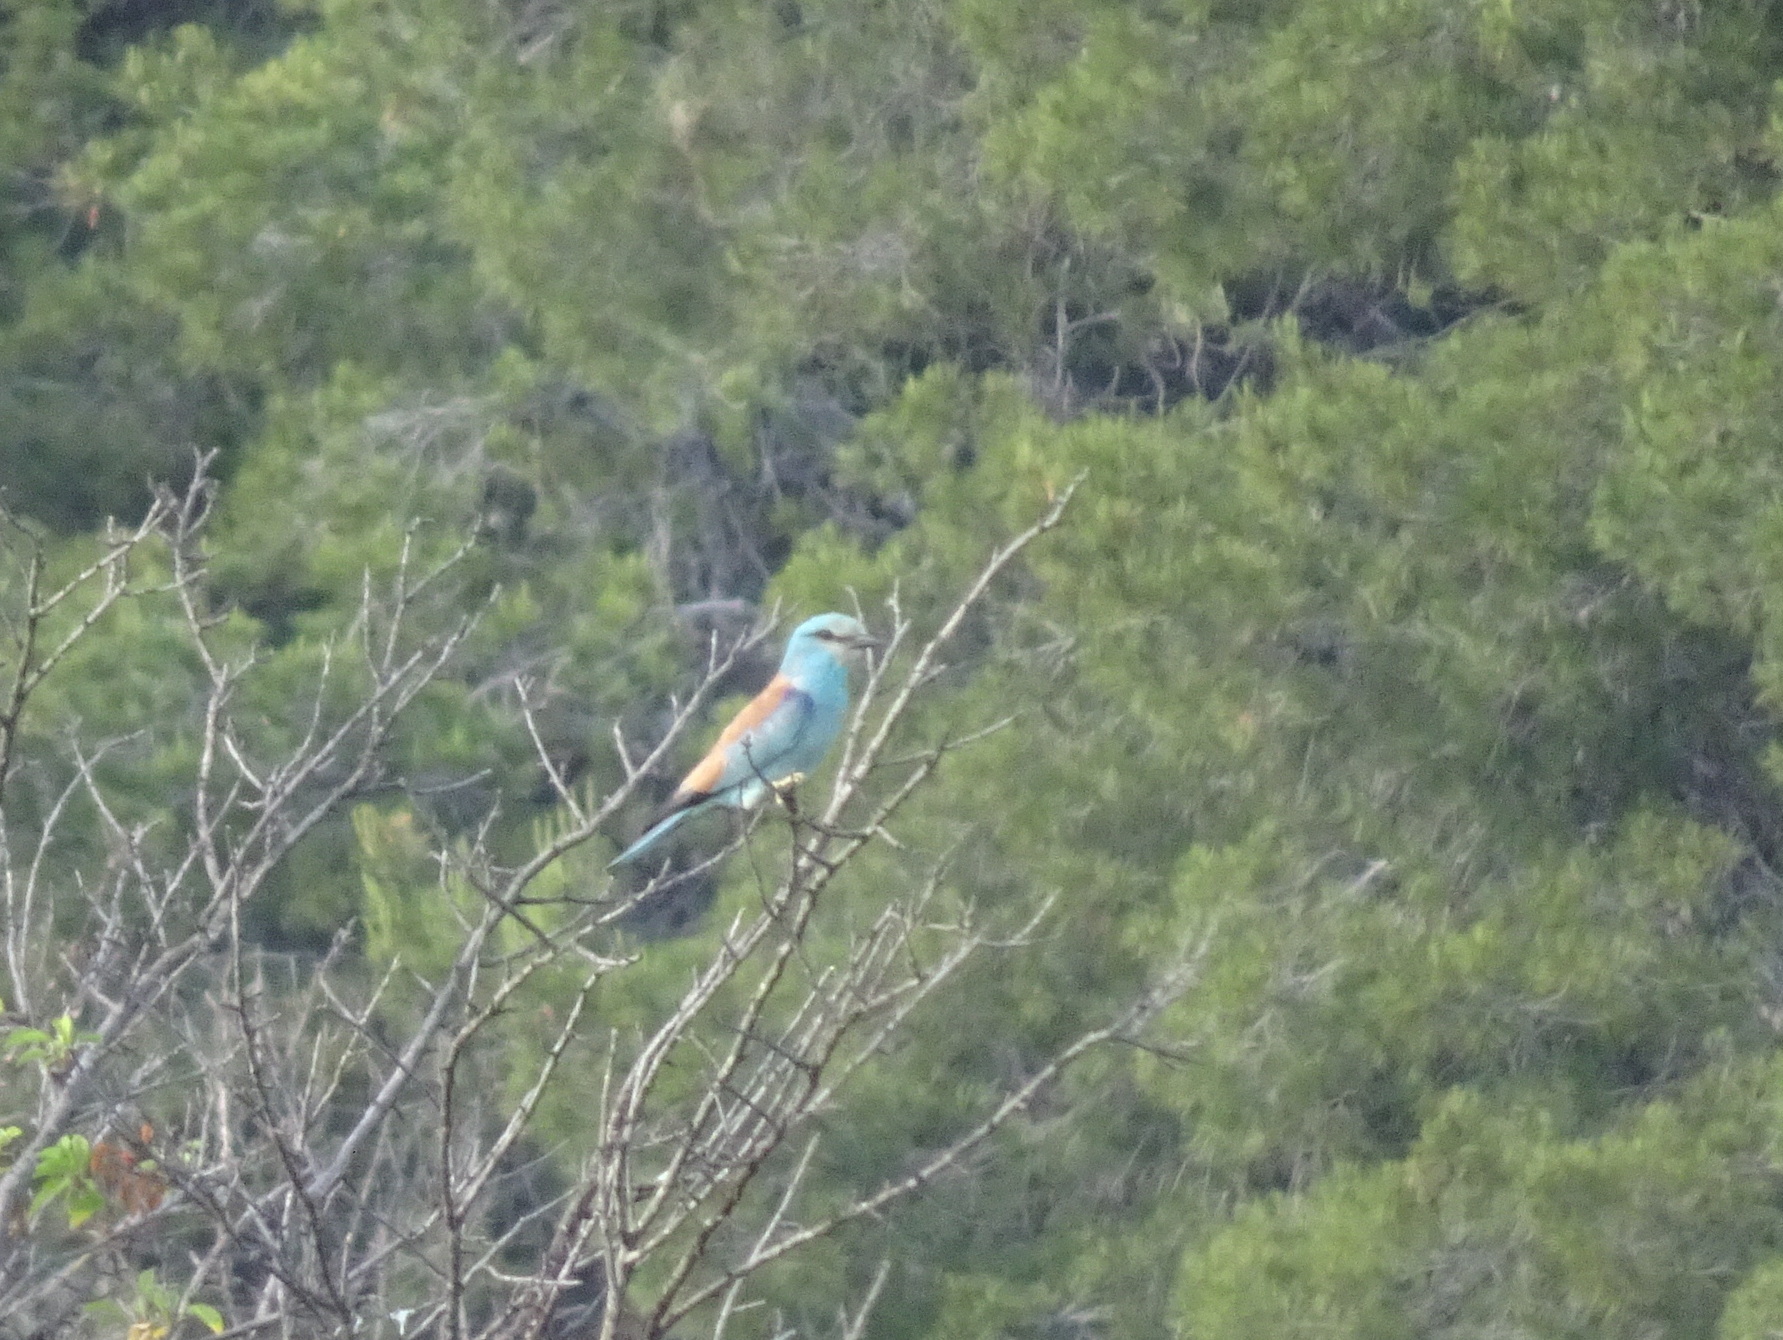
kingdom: Animalia
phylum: Chordata
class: Aves
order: Coraciiformes
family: Coraciidae
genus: Coracias
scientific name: Coracias garrulus
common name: European roller
